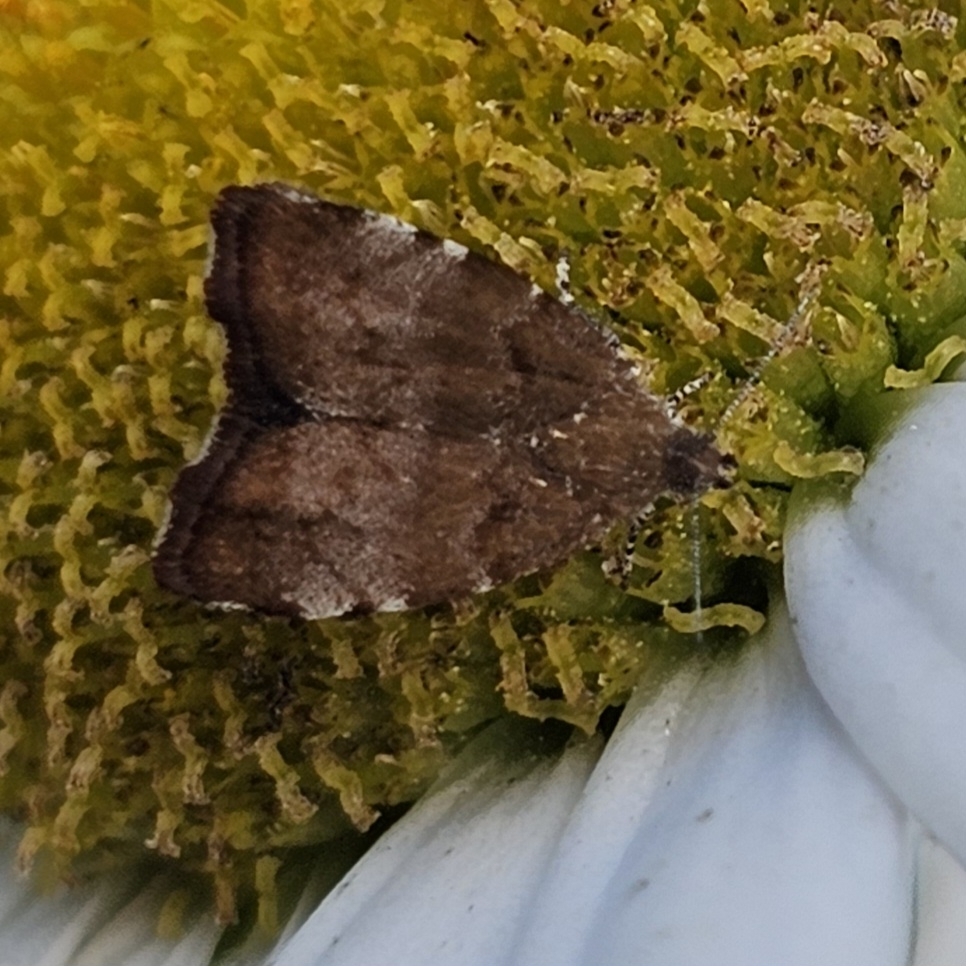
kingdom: Animalia
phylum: Arthropoda
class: Insecta
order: Lepidoptera
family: Choreutidae
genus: Choreutis
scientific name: Choreutis pariana
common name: Apple leaf skeletoniser
